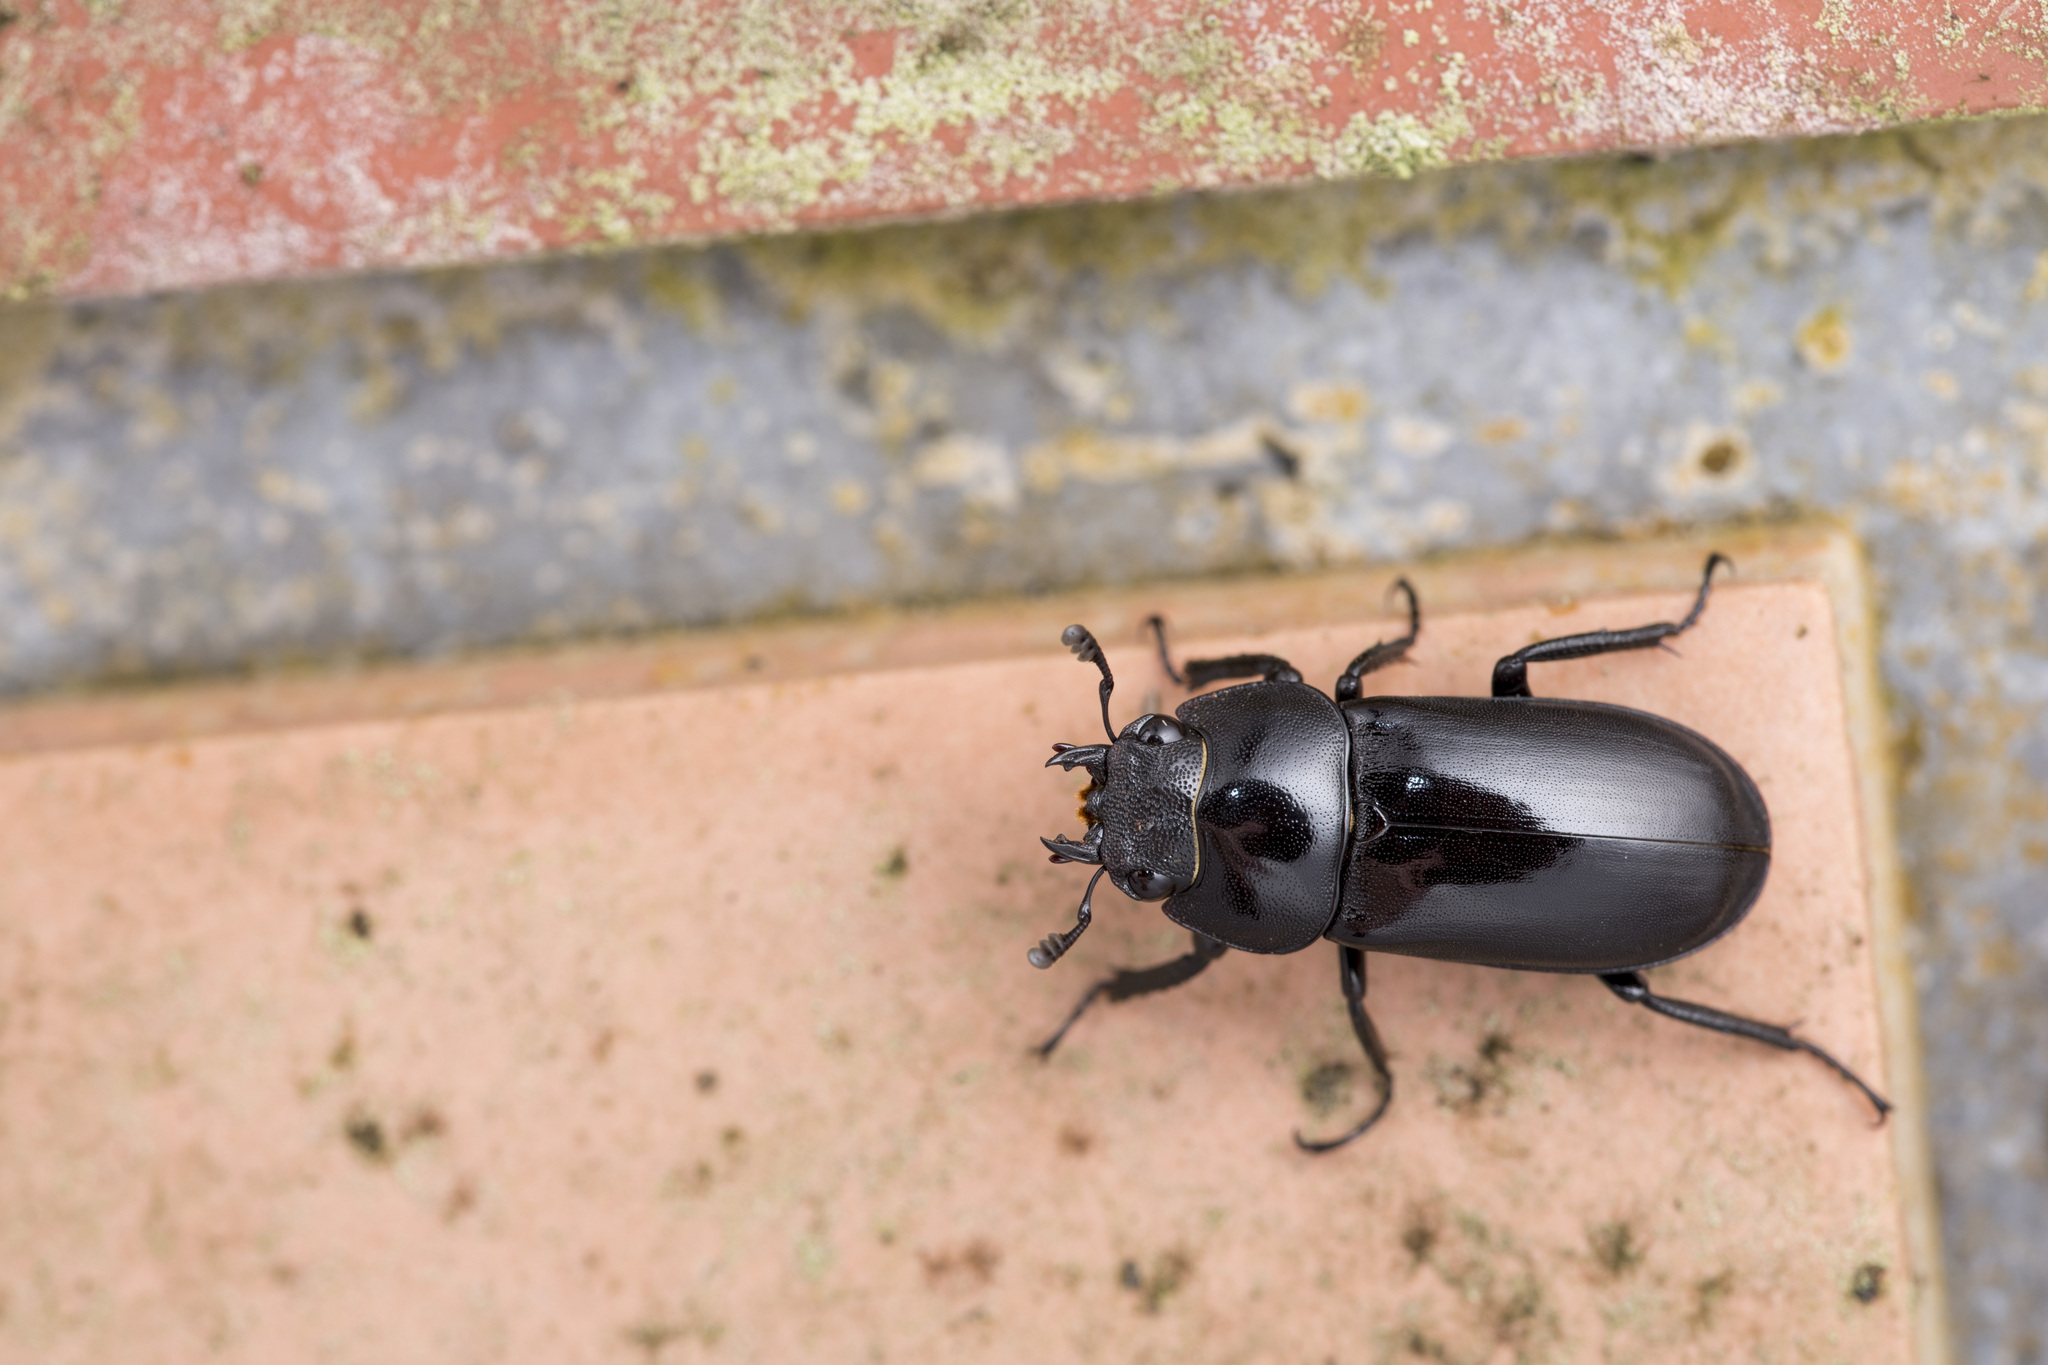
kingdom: Animalia
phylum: Arthropoda
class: Insecta
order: Coleoptera
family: Lucanidae
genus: Prosopocoilus
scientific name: Prosopocoilus formosanus
